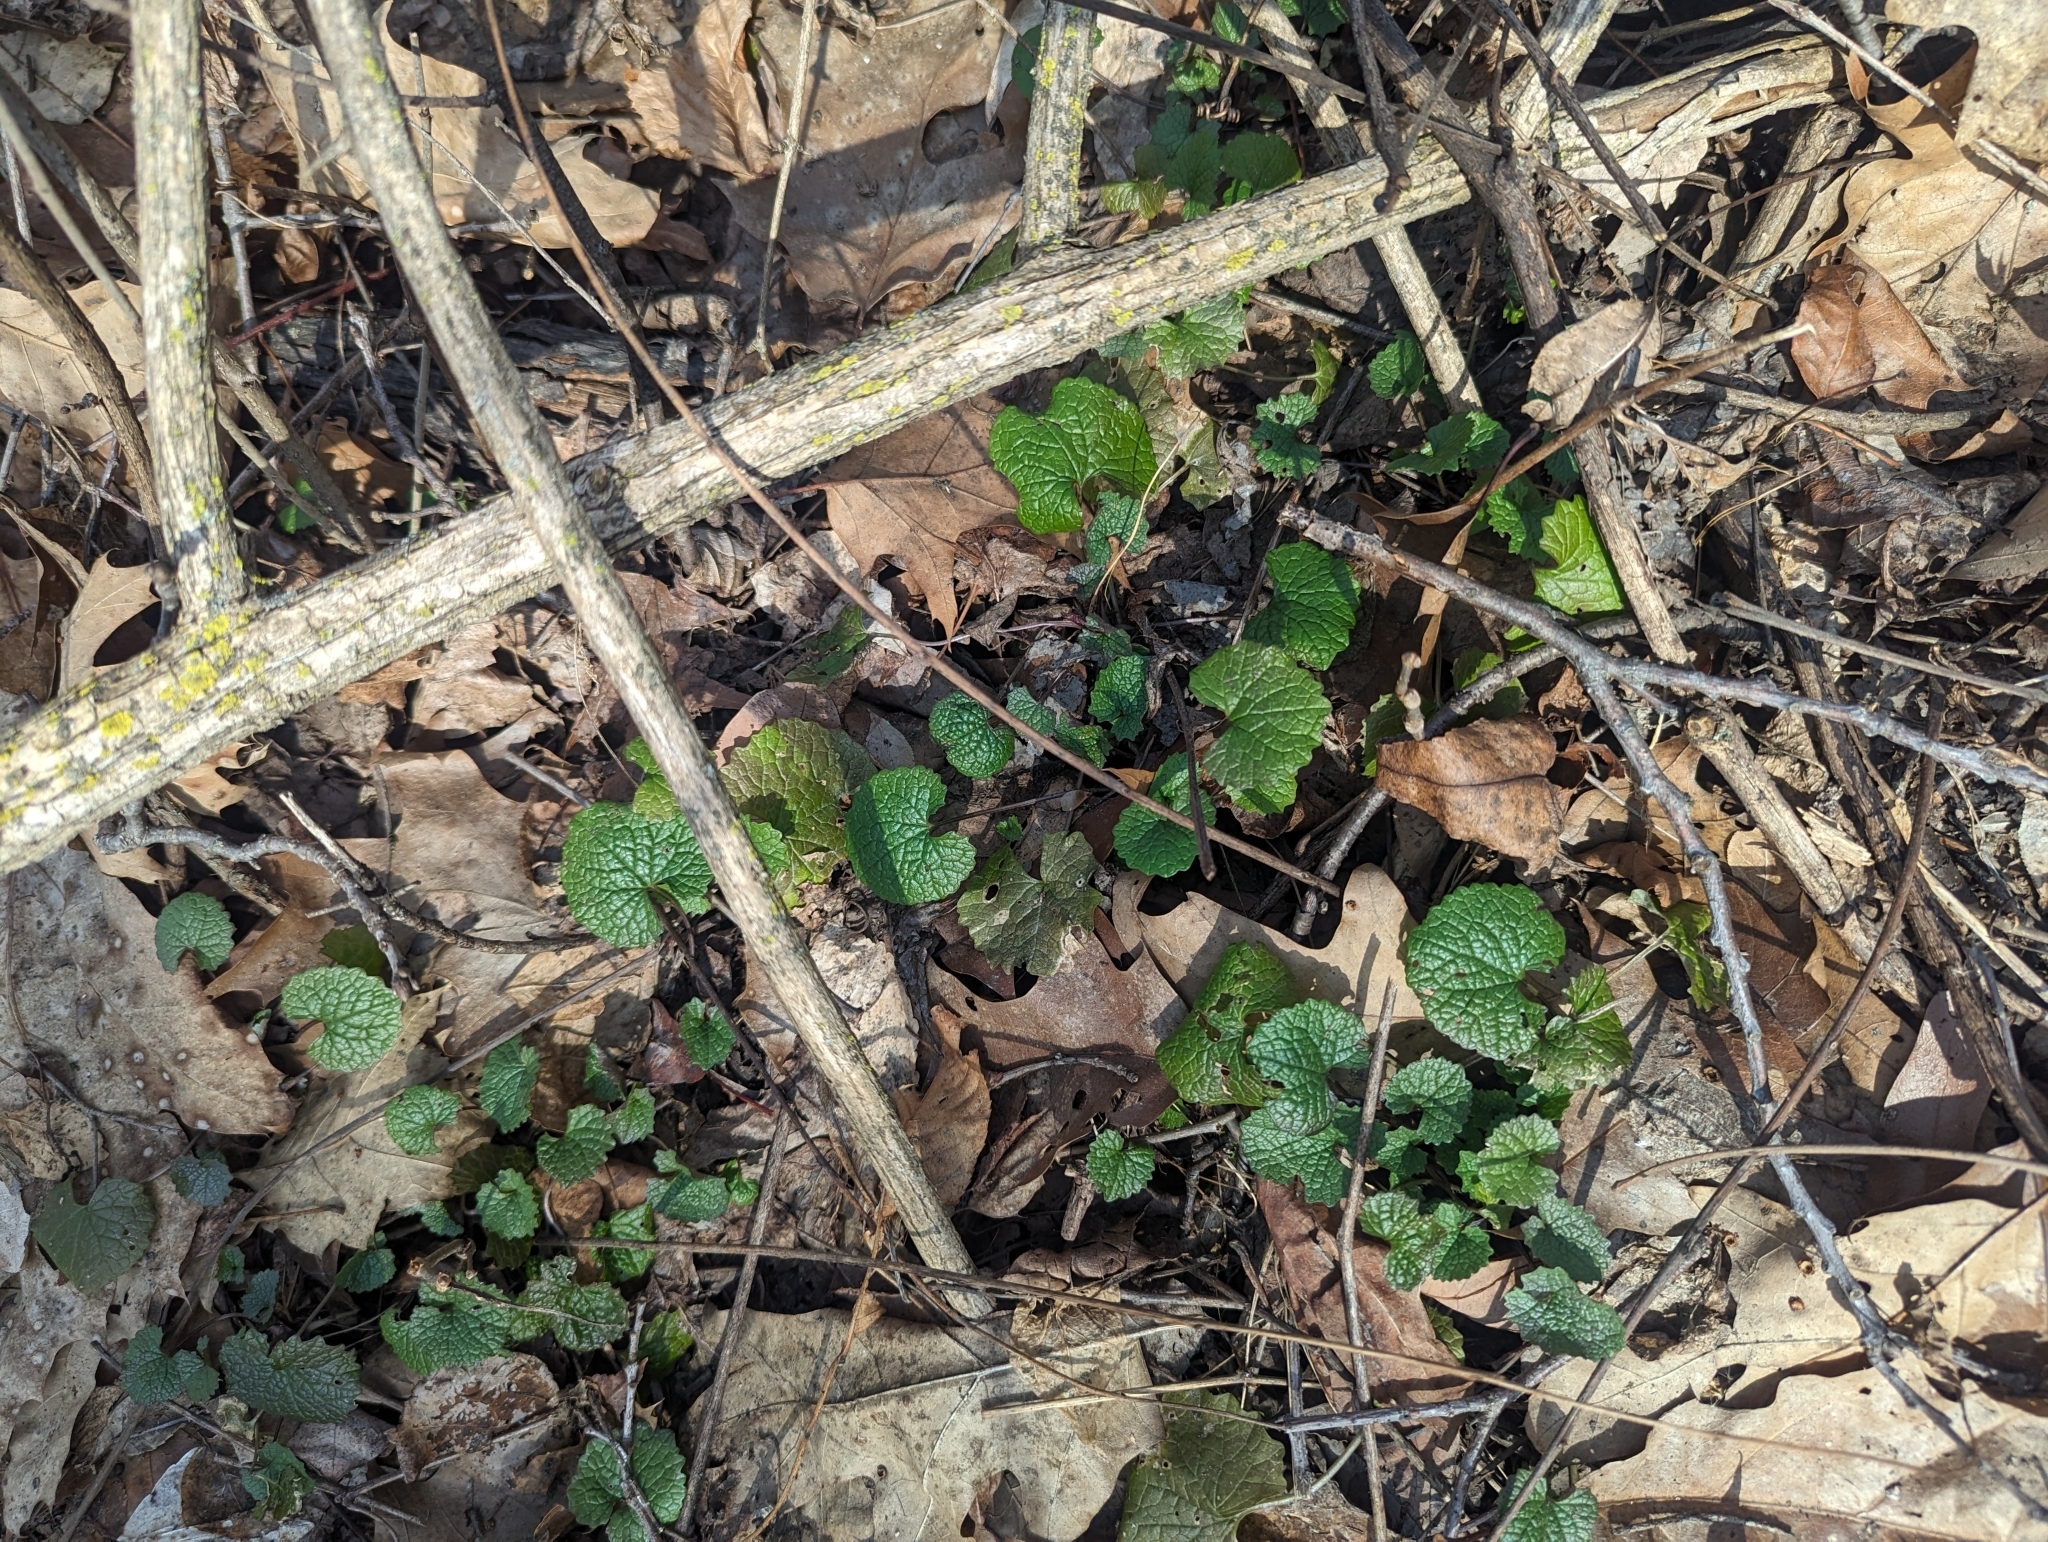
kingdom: Plantae
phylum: Tracheophyta
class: Magnoliopsida
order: Brassicales
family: Brassicaceae
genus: Alliaria
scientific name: Alliaria petiolata
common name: Garlic mustard
